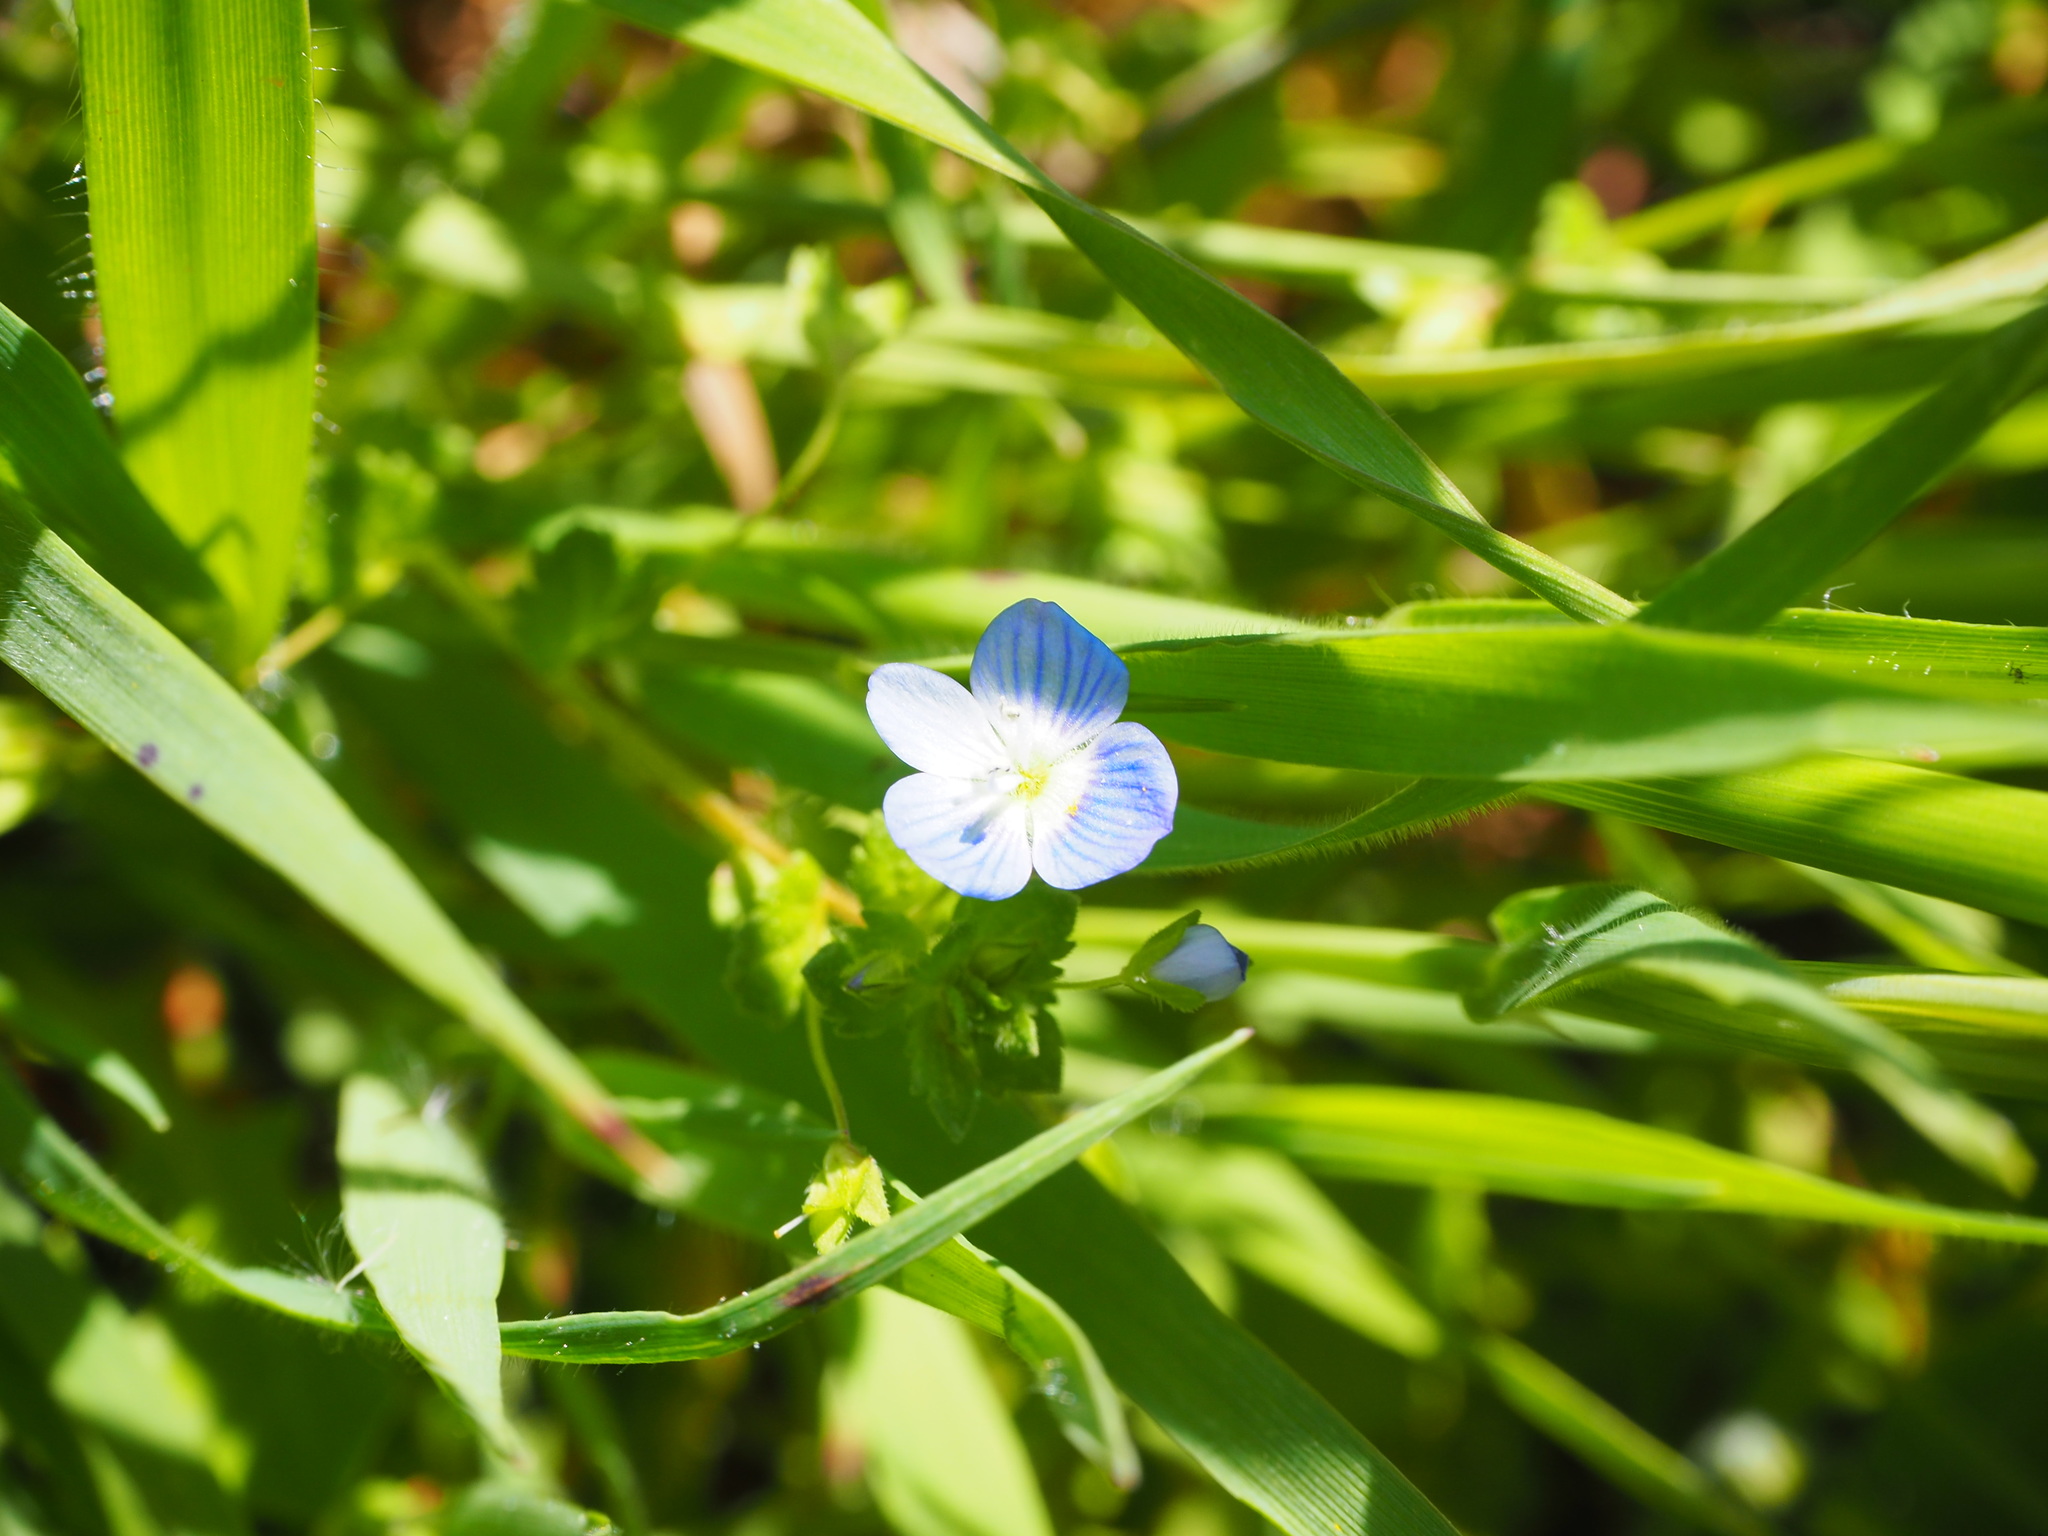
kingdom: Plantae
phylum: Tracheophyta
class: Magnoliopsida
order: Lamiales
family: Plantaginaceae
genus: Veronica
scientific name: Veronica persica
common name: Common field-speedwell
